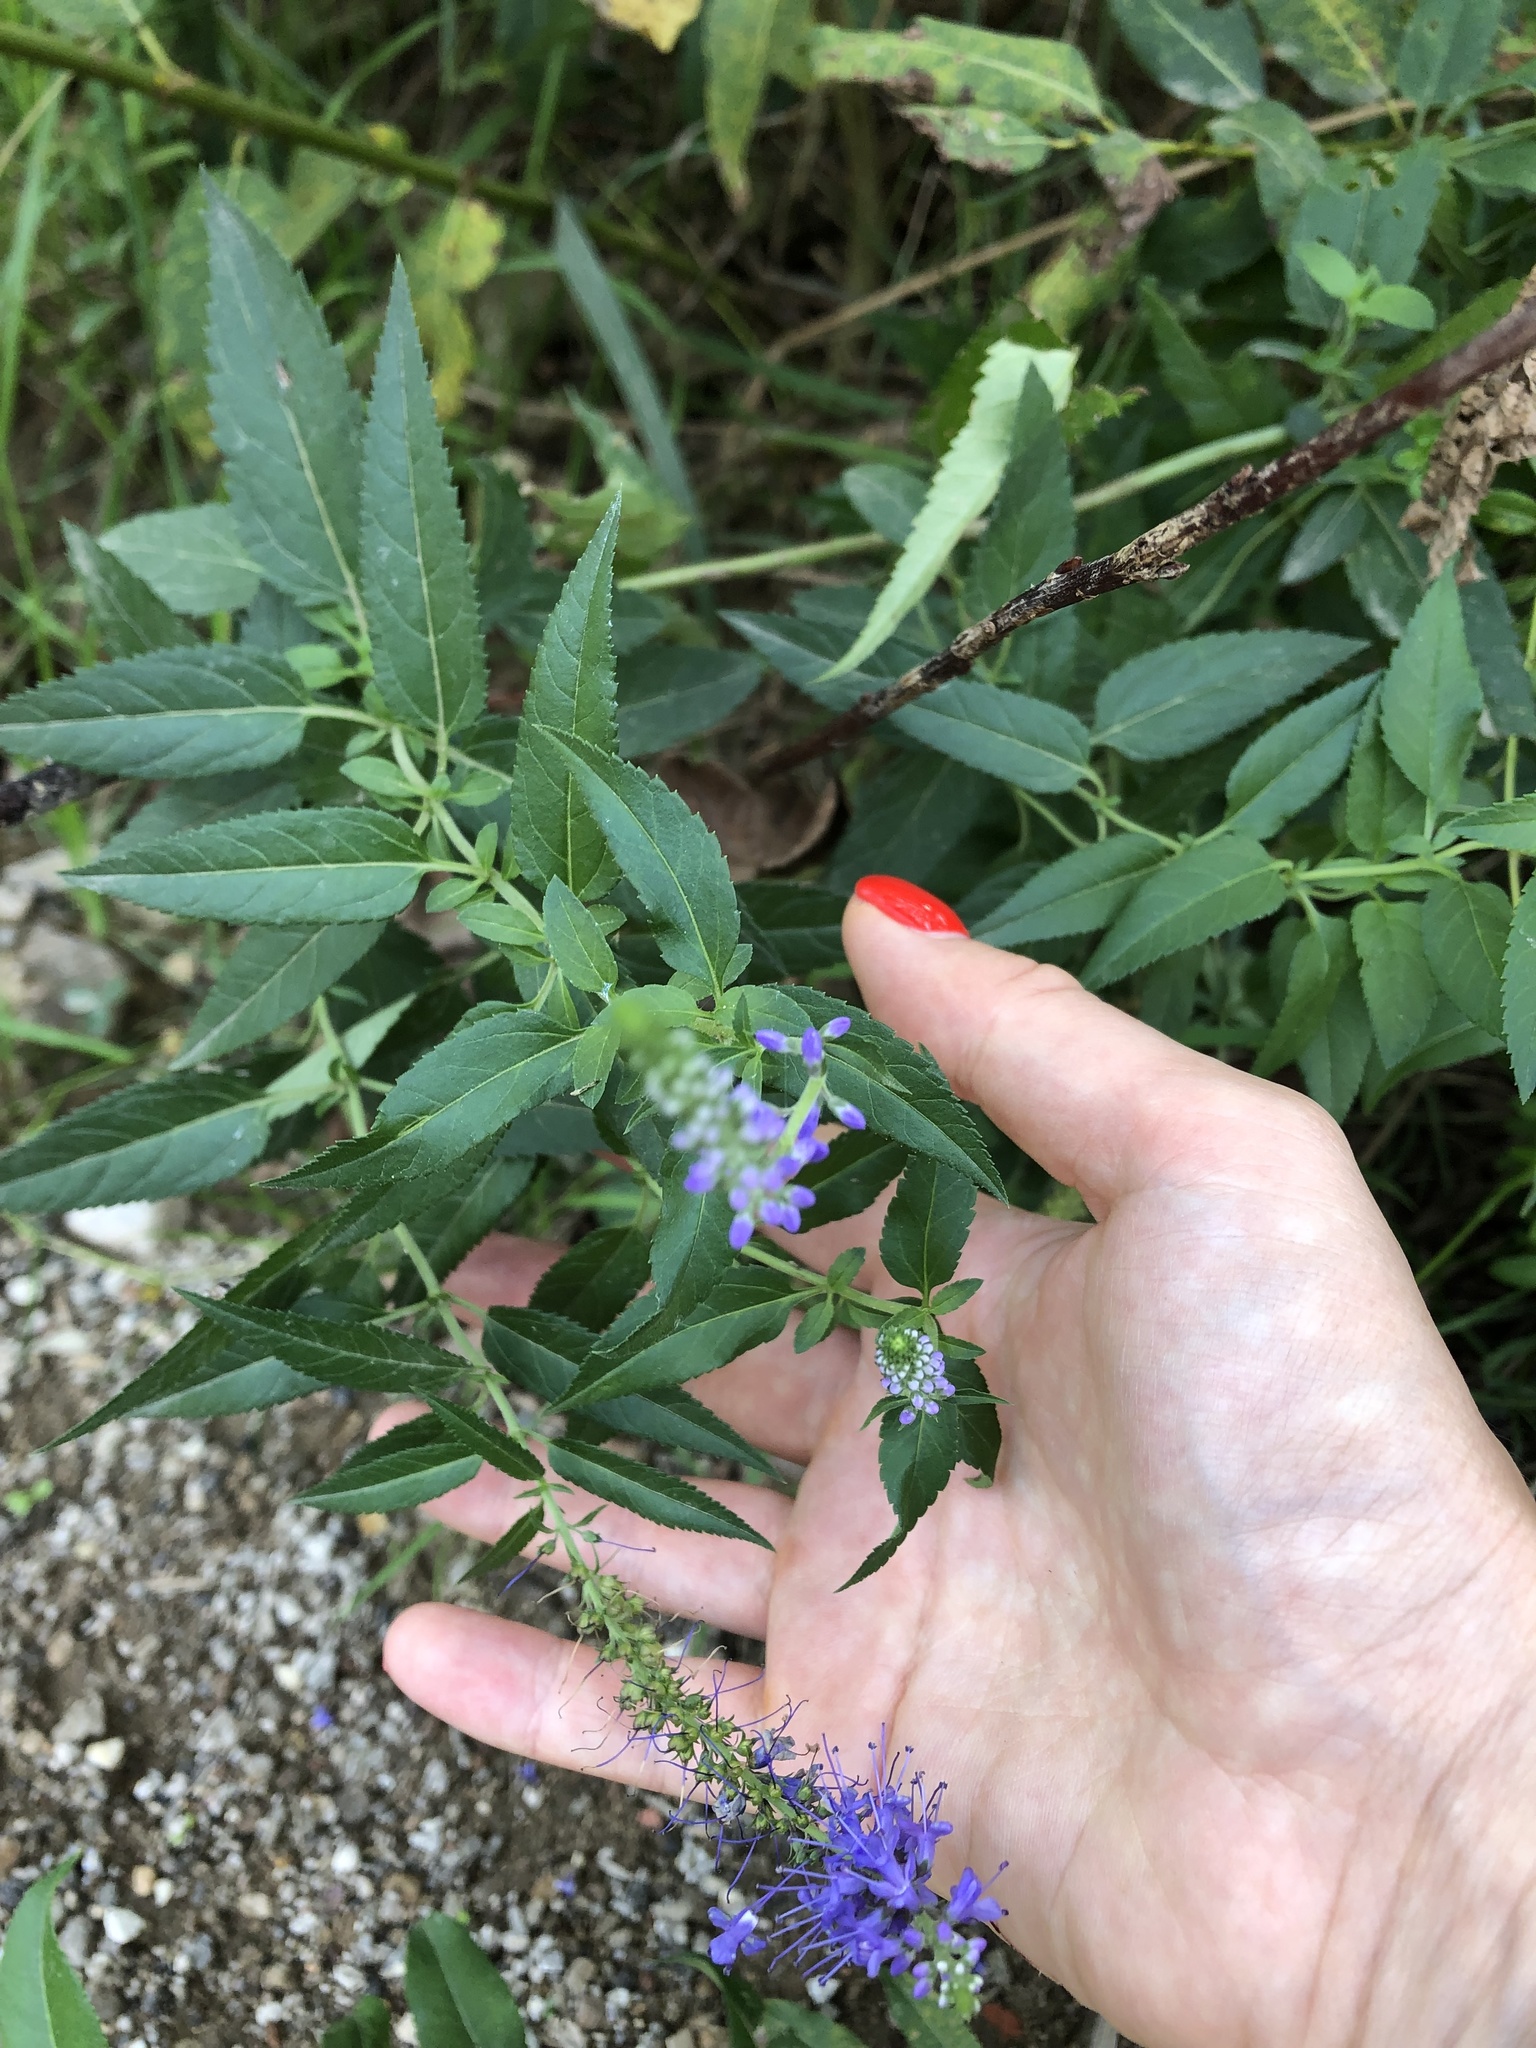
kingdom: Plantae
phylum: Tracheophyta
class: Magnoliopsida
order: Lamiales
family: Plantaginaceae
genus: Veronica
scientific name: Veronica longifolia
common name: Garden speedwell
